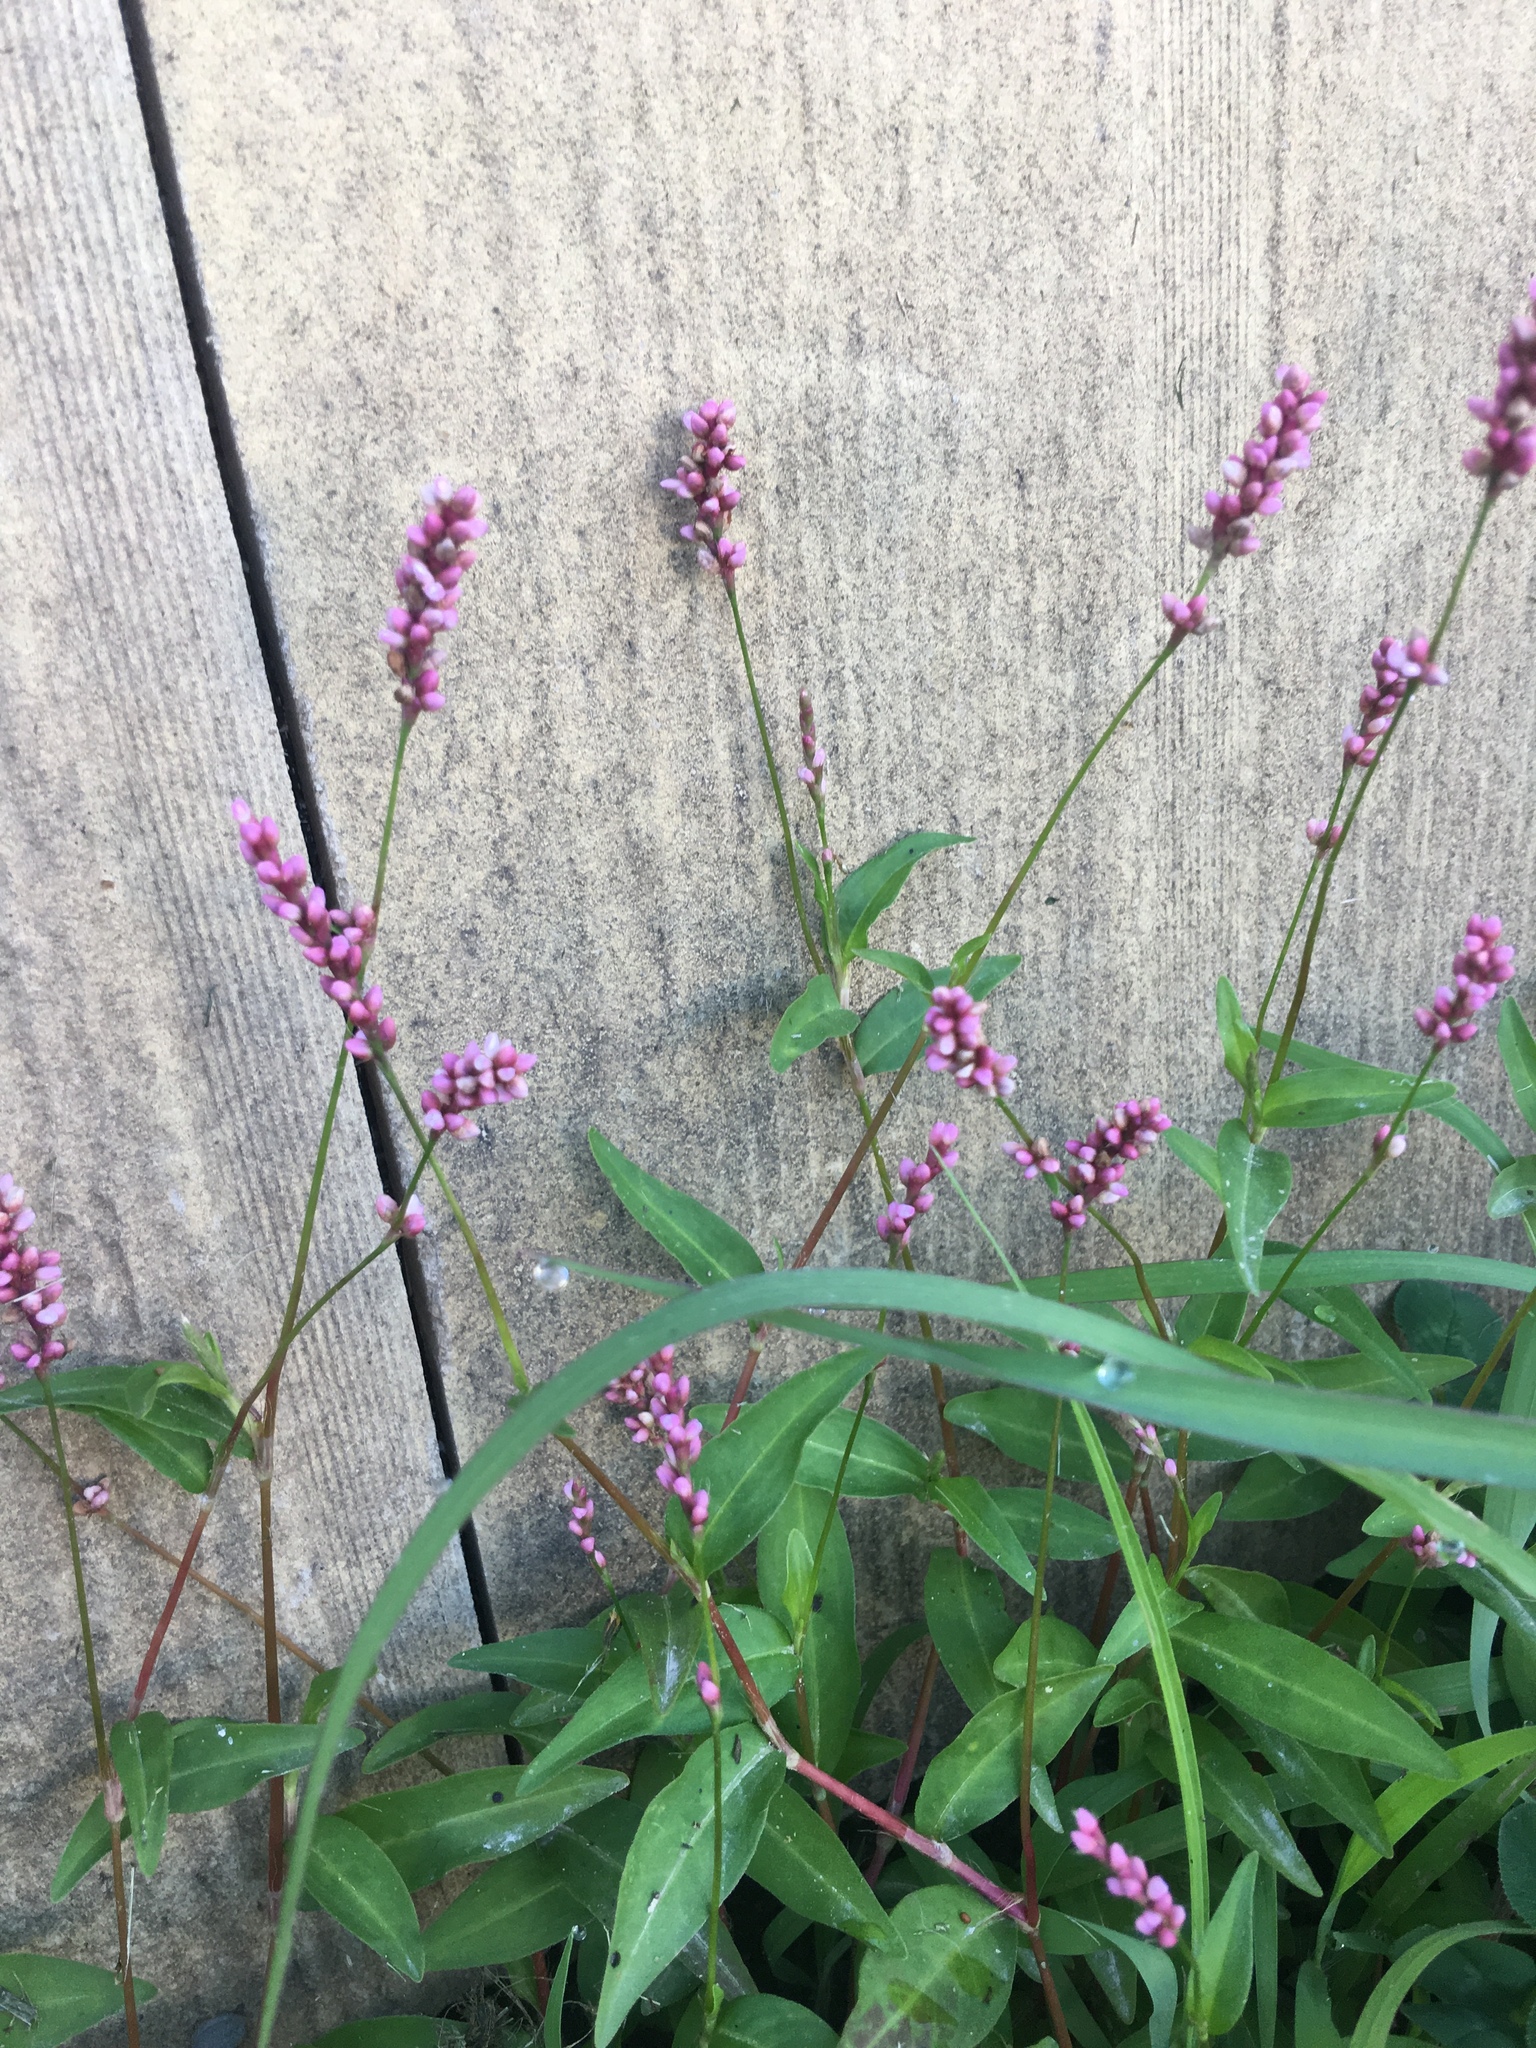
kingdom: Plantae
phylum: Tracheophyta
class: Magnoliopsida
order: Caryophyllales
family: Polygonaceae
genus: Persicaria
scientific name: Persicaria longiseta
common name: Bristly lady's-thumb
